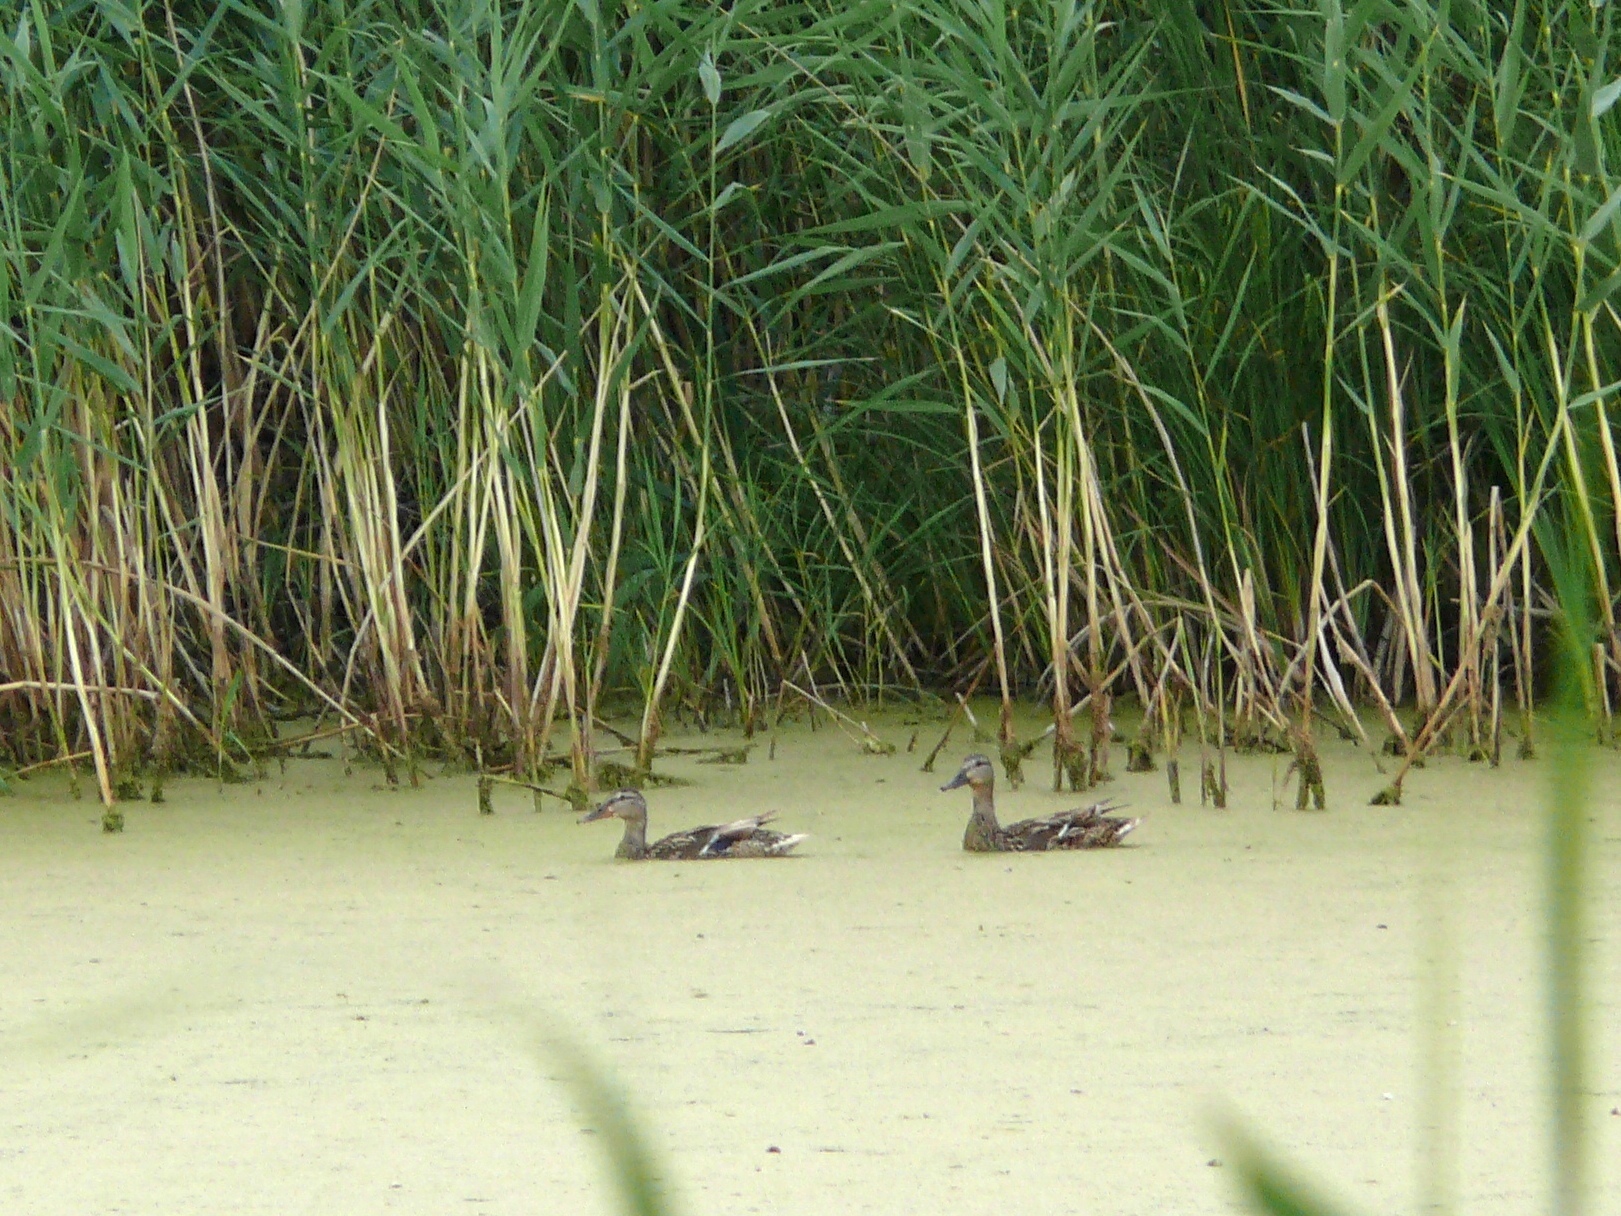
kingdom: Animalia
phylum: Chordata
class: Aves
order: Anseriformes
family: Anatidae
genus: Anas
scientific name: Anas platyrhynchos
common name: Mallard
